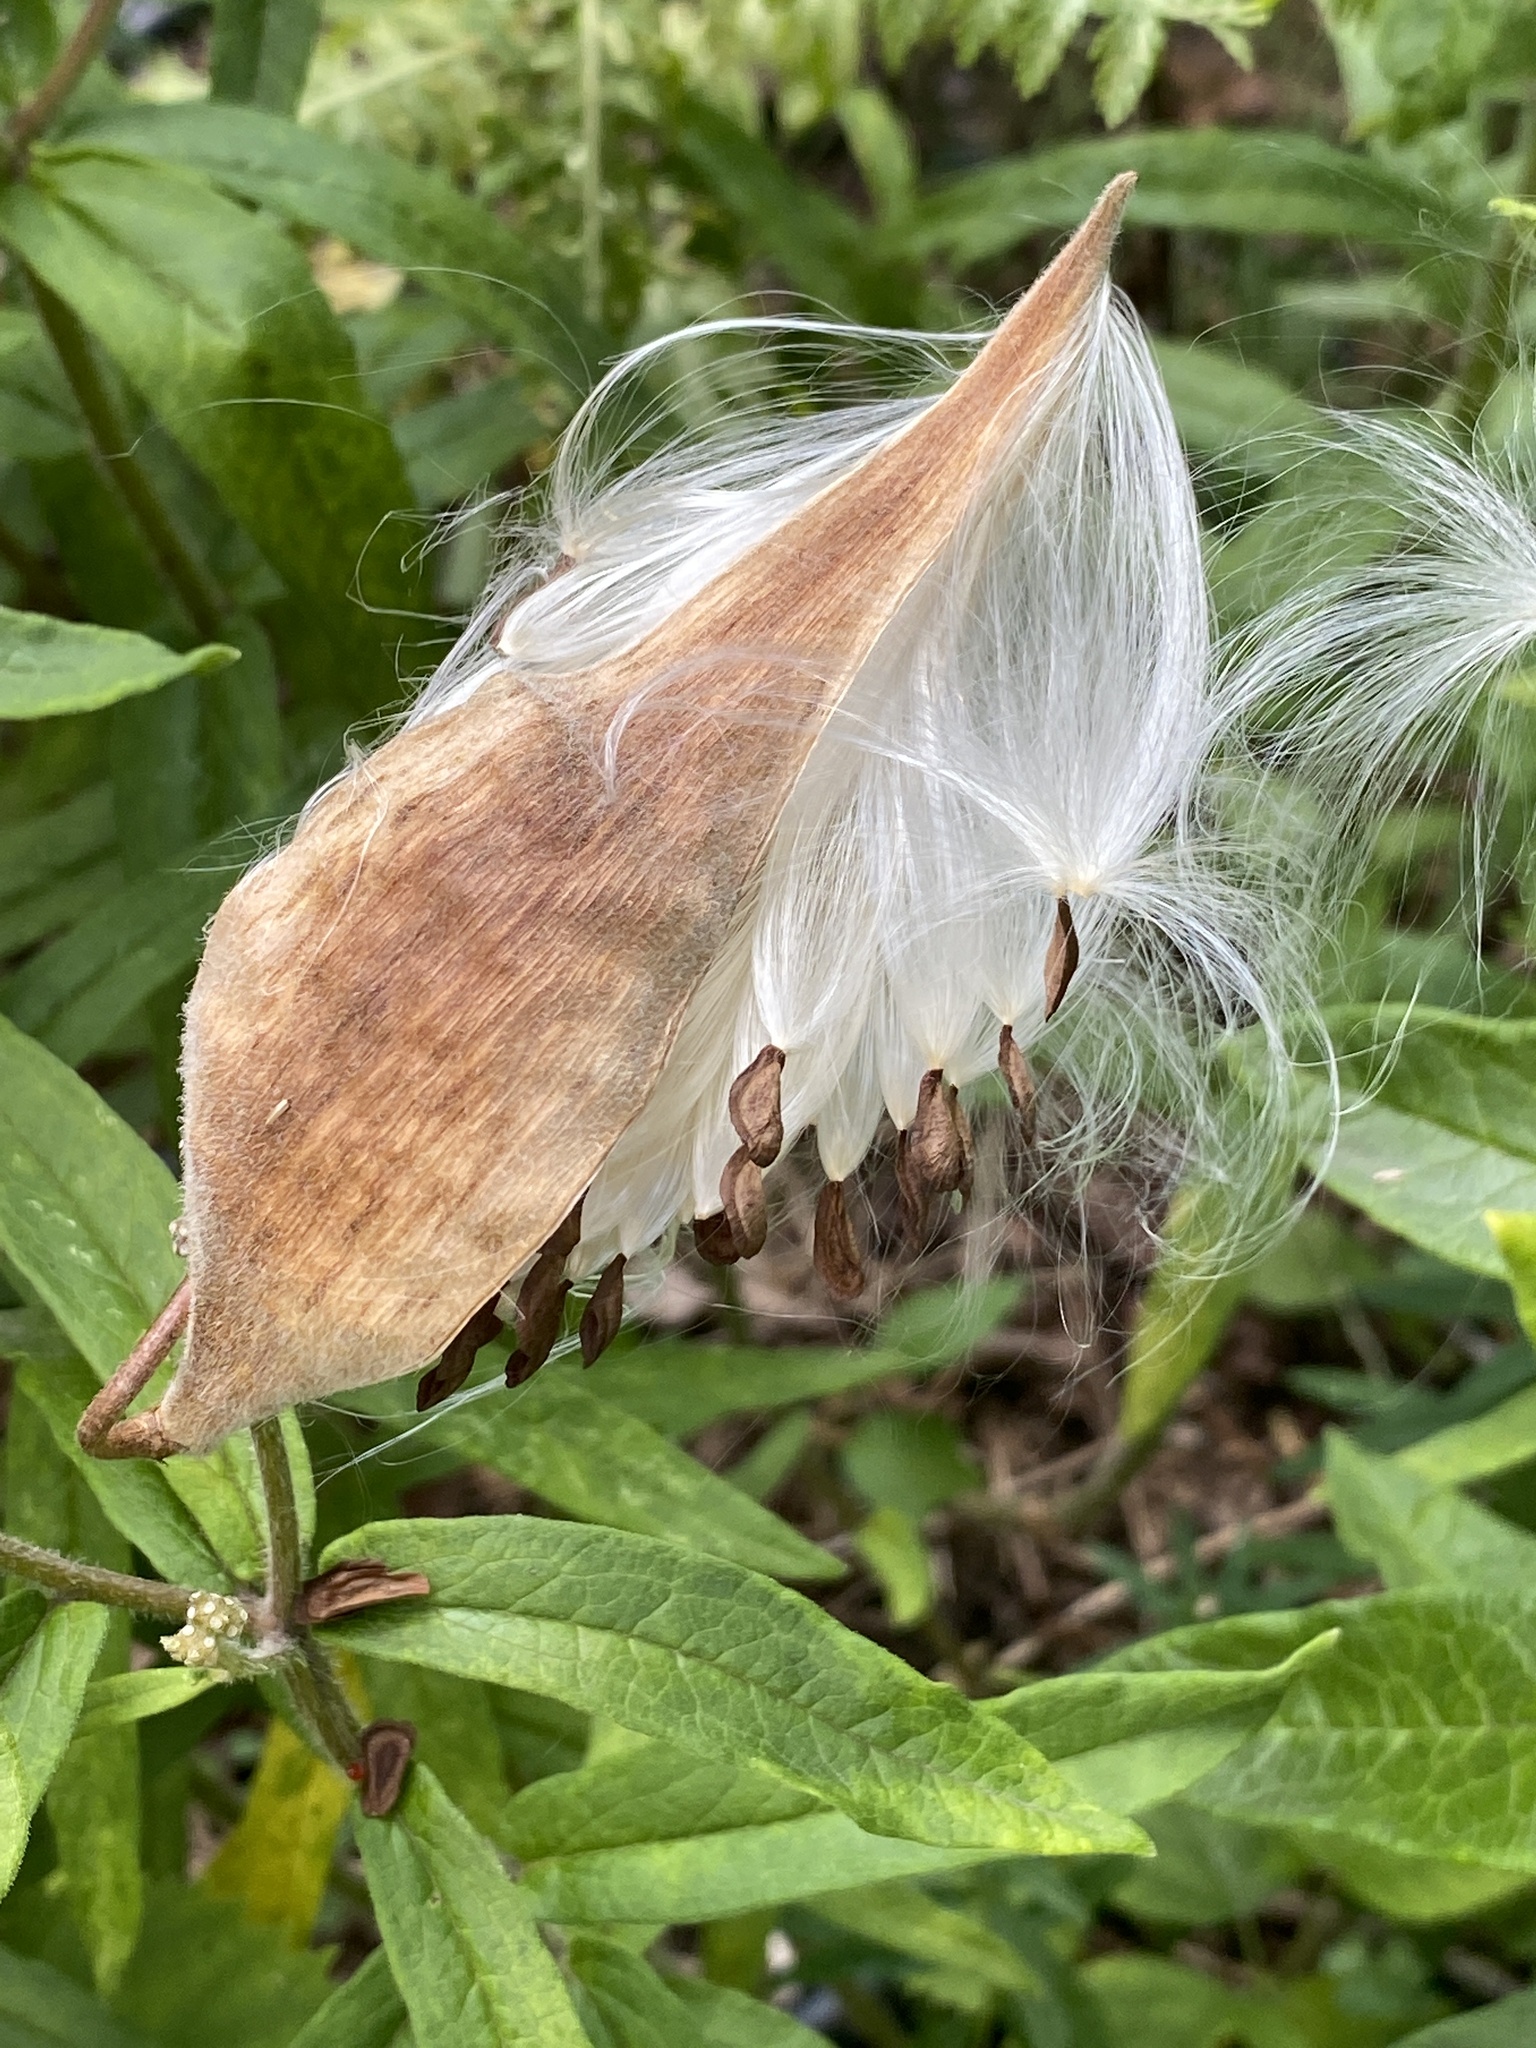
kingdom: Plantae
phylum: Tracheophyta
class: Magnoliopsida
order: Gentianales
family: Apocynaceae
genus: Asclepias
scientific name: Asclepias tuberosa
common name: Butterfly milkweed
